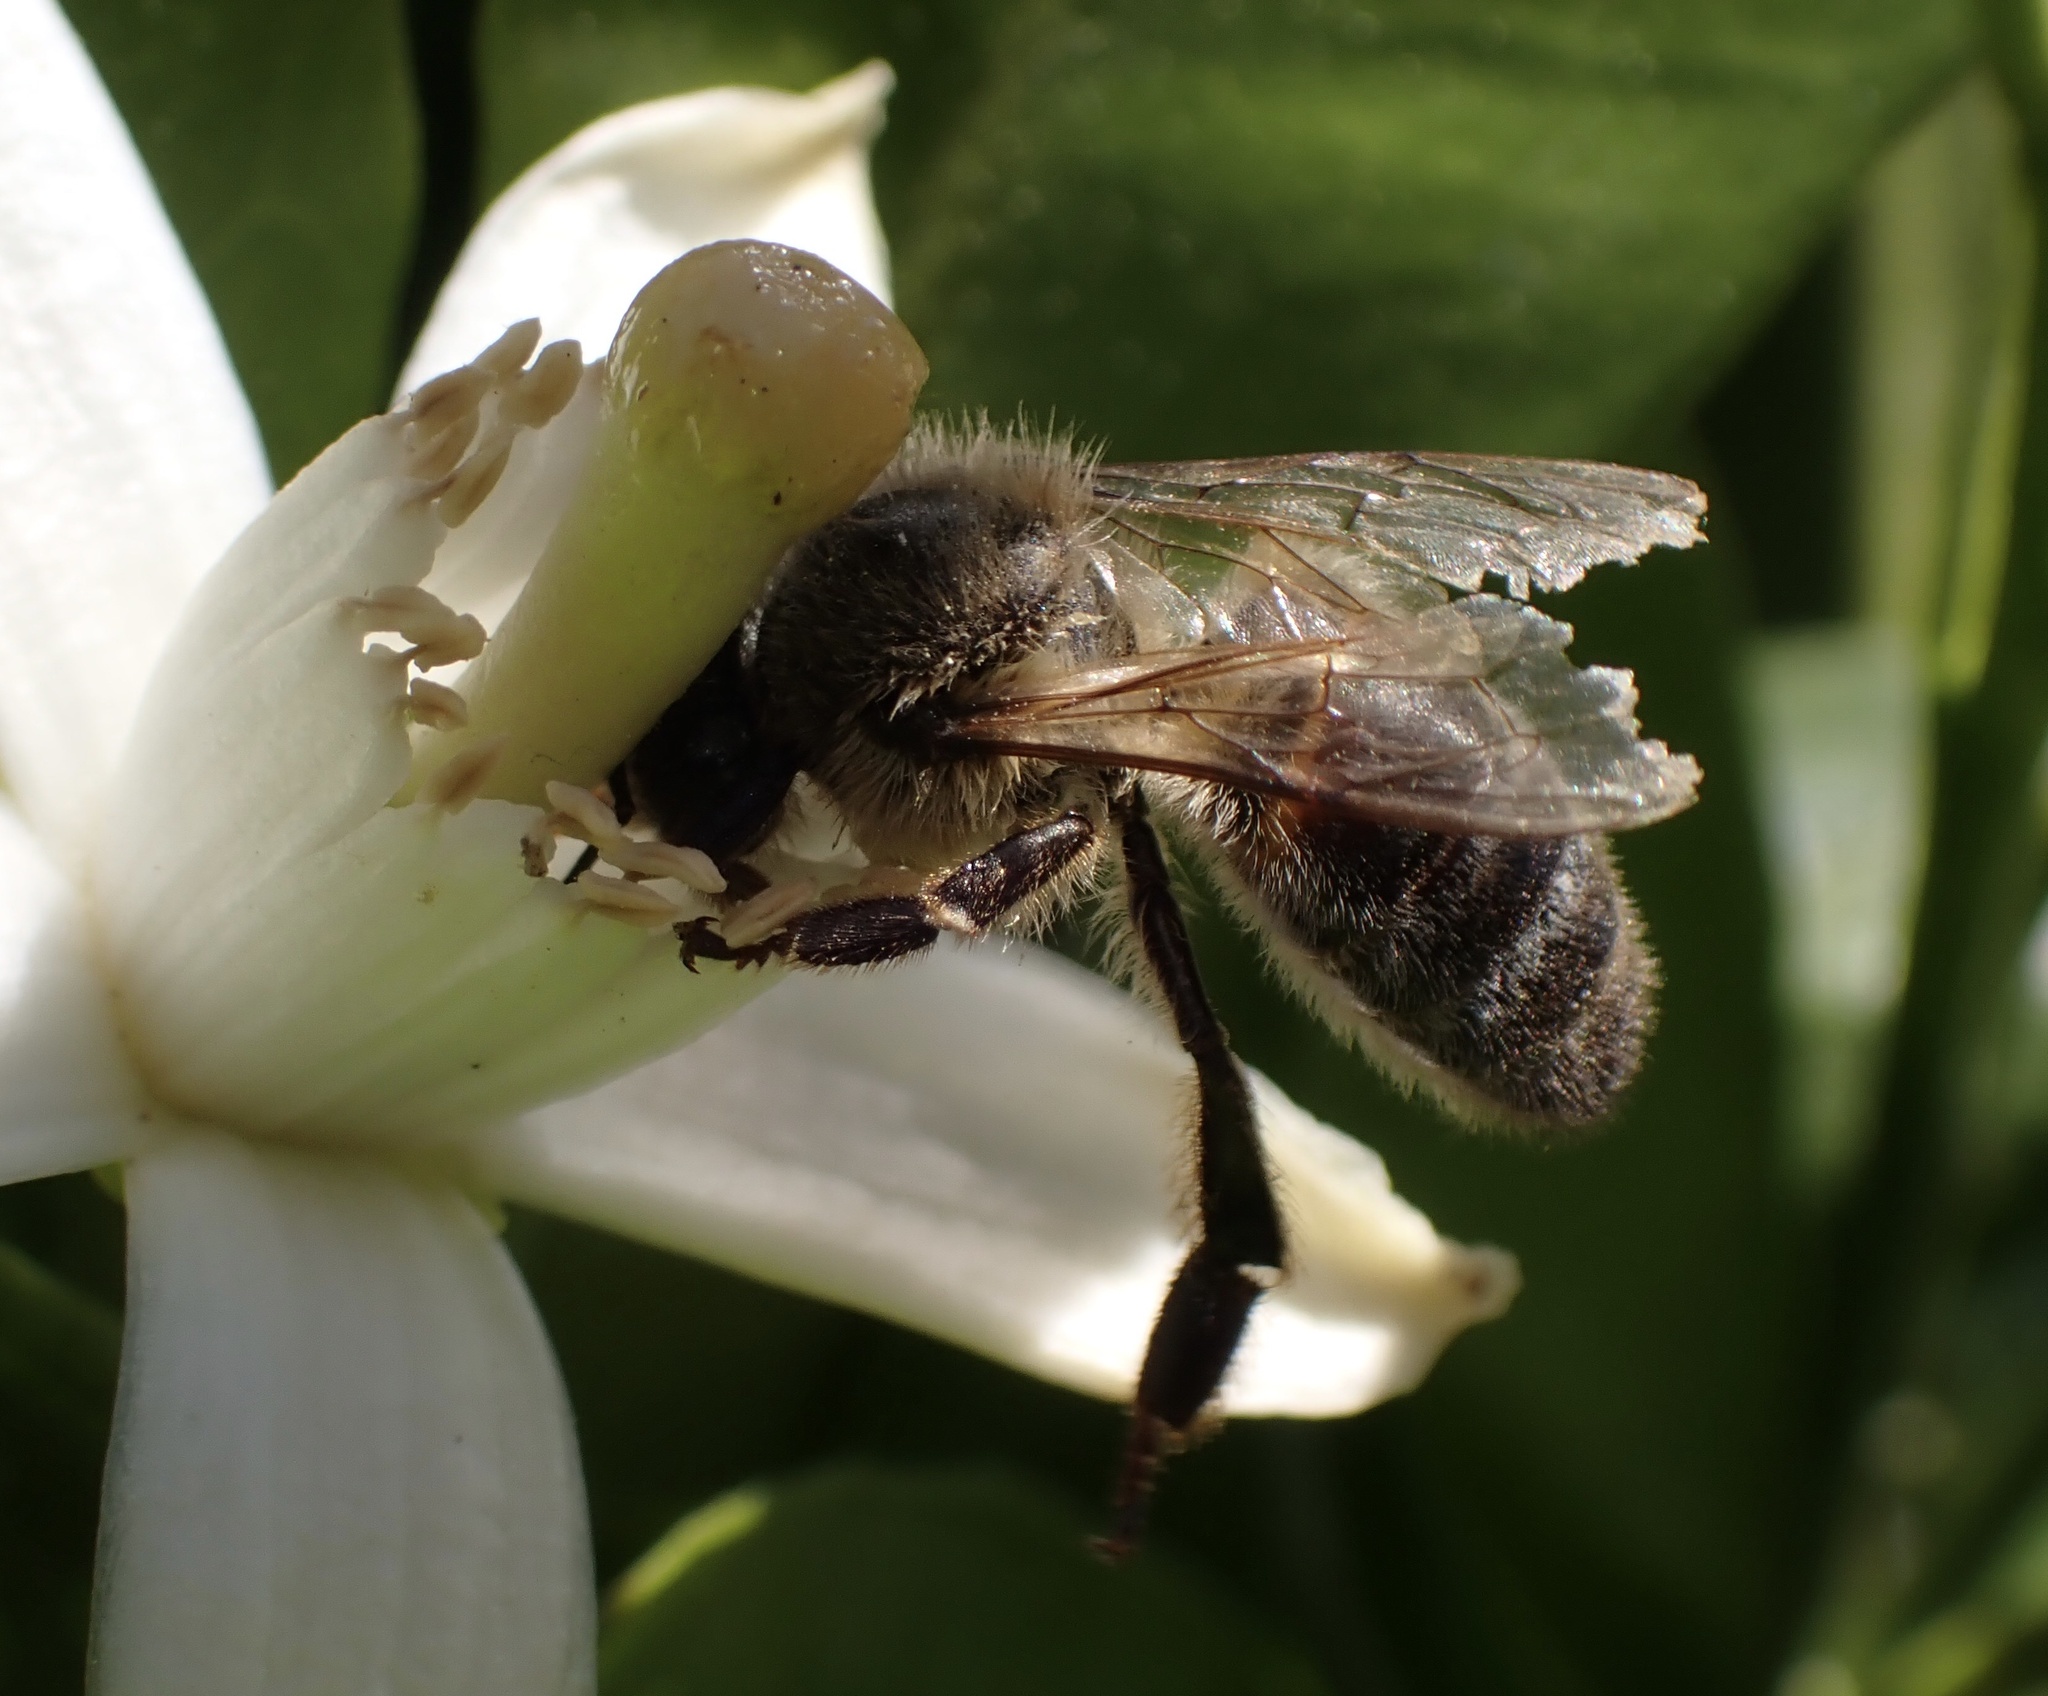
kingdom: Animalia
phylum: Arthropoda
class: Insecta
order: Hymenoptera
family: Apidae
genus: Apis
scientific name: Apis mellifera
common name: Honey bee
